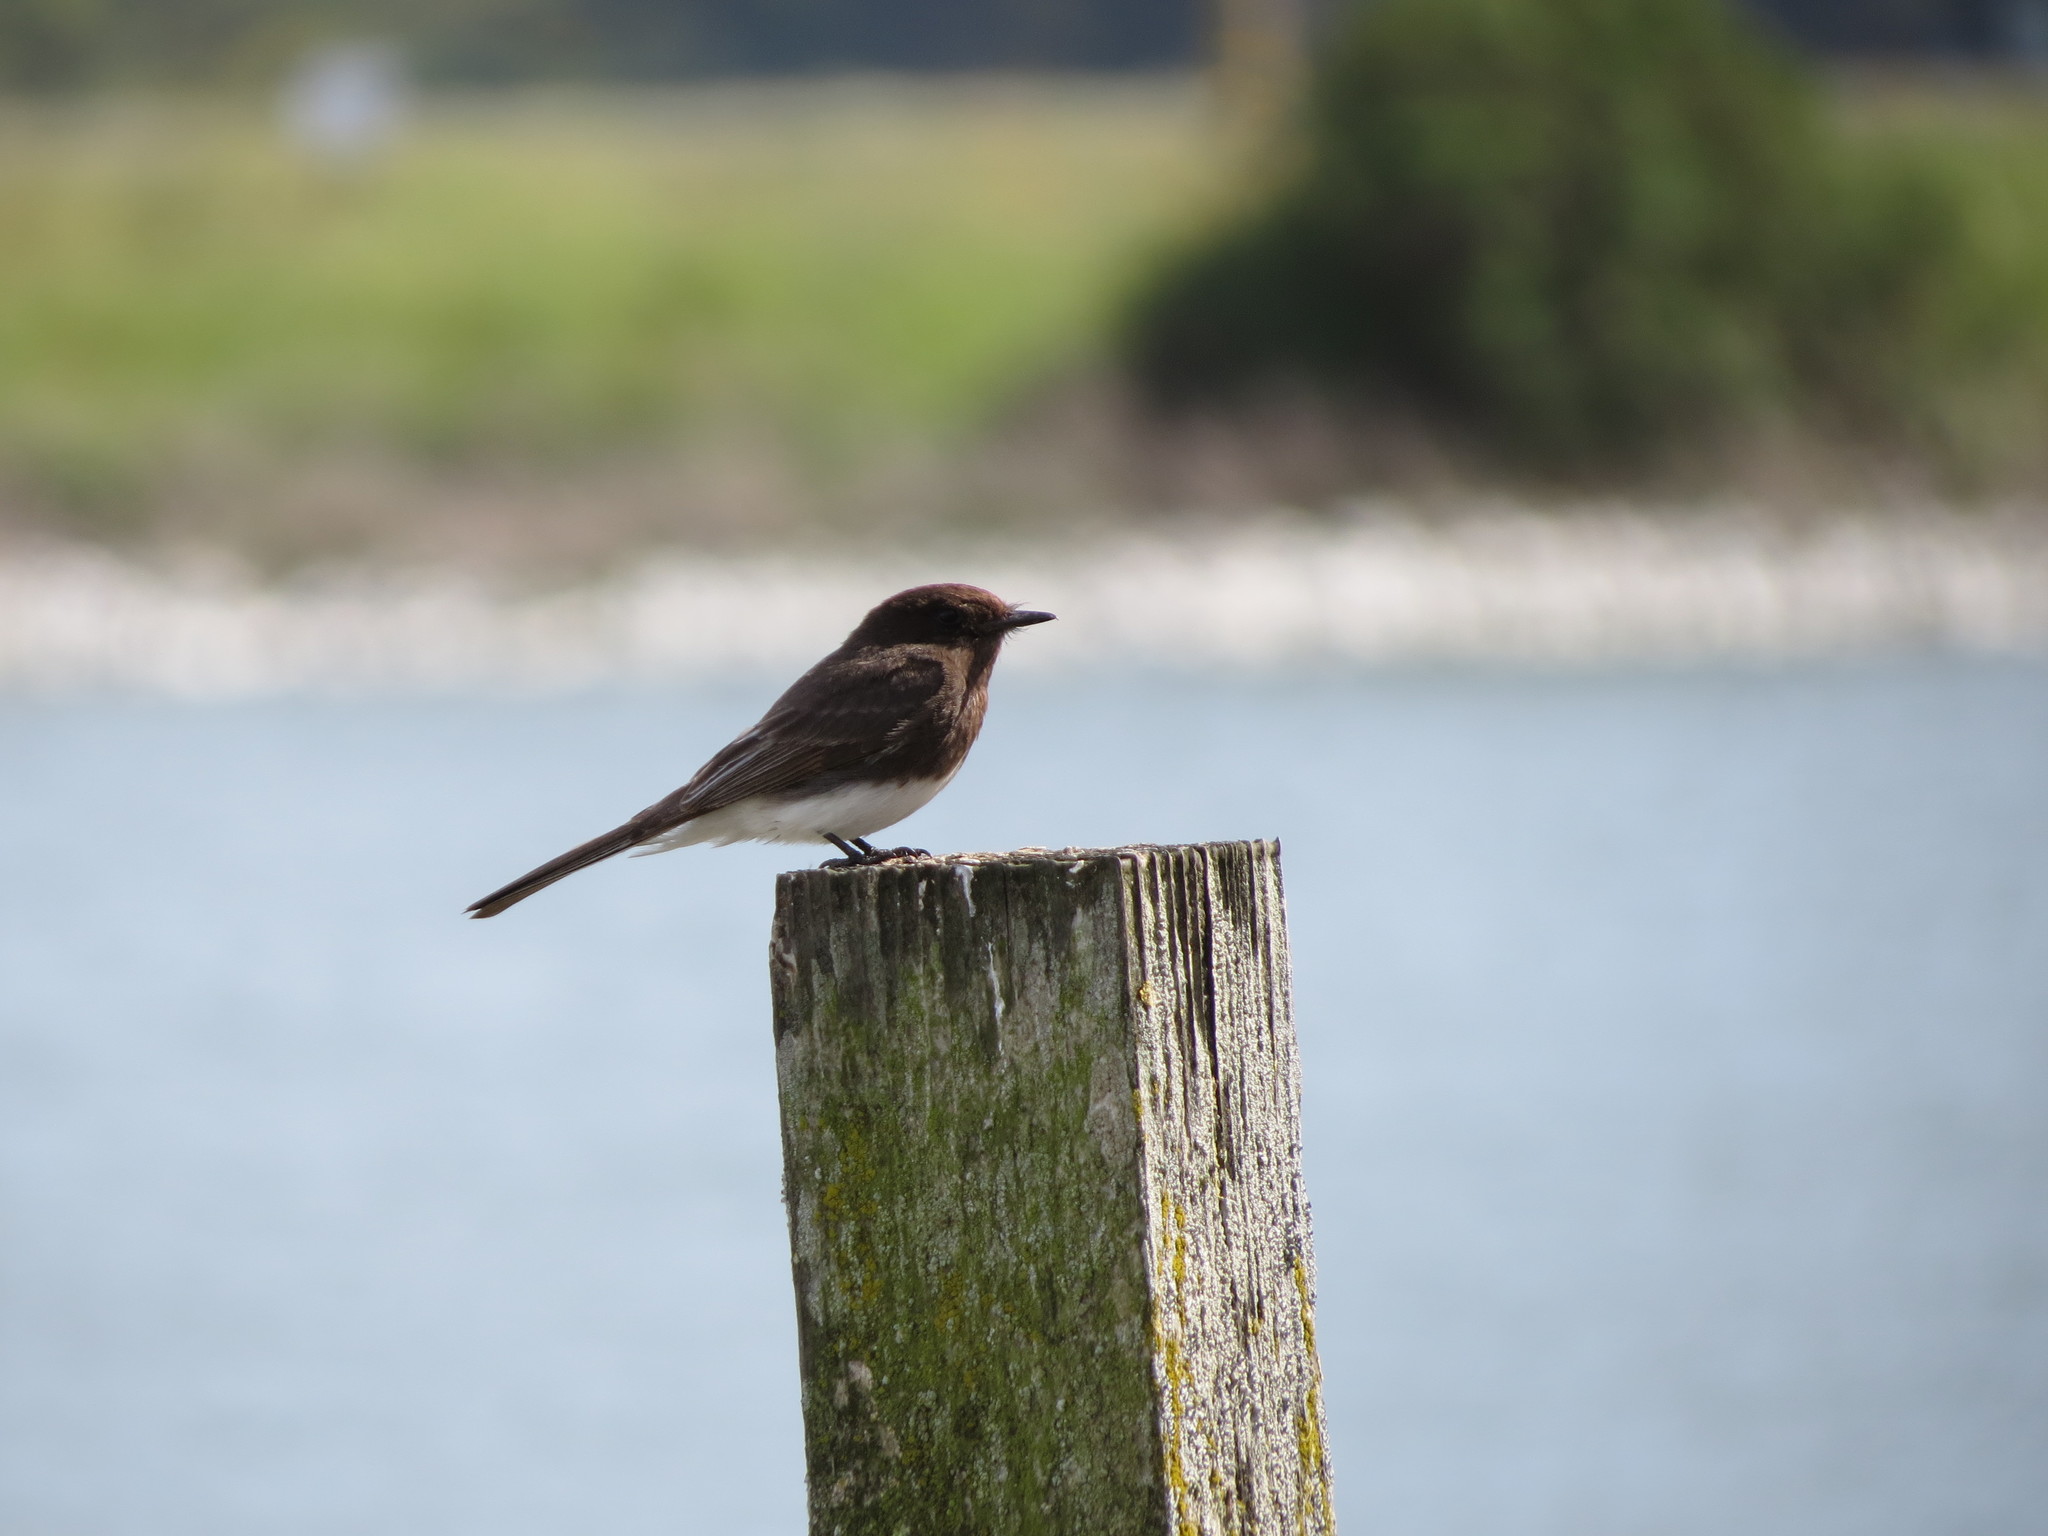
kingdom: Animalia
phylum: Chordata
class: Aves
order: Passeriformes
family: Tyrannidae
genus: Sayornis
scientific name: Sayornis nigricans
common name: Black phoebe
